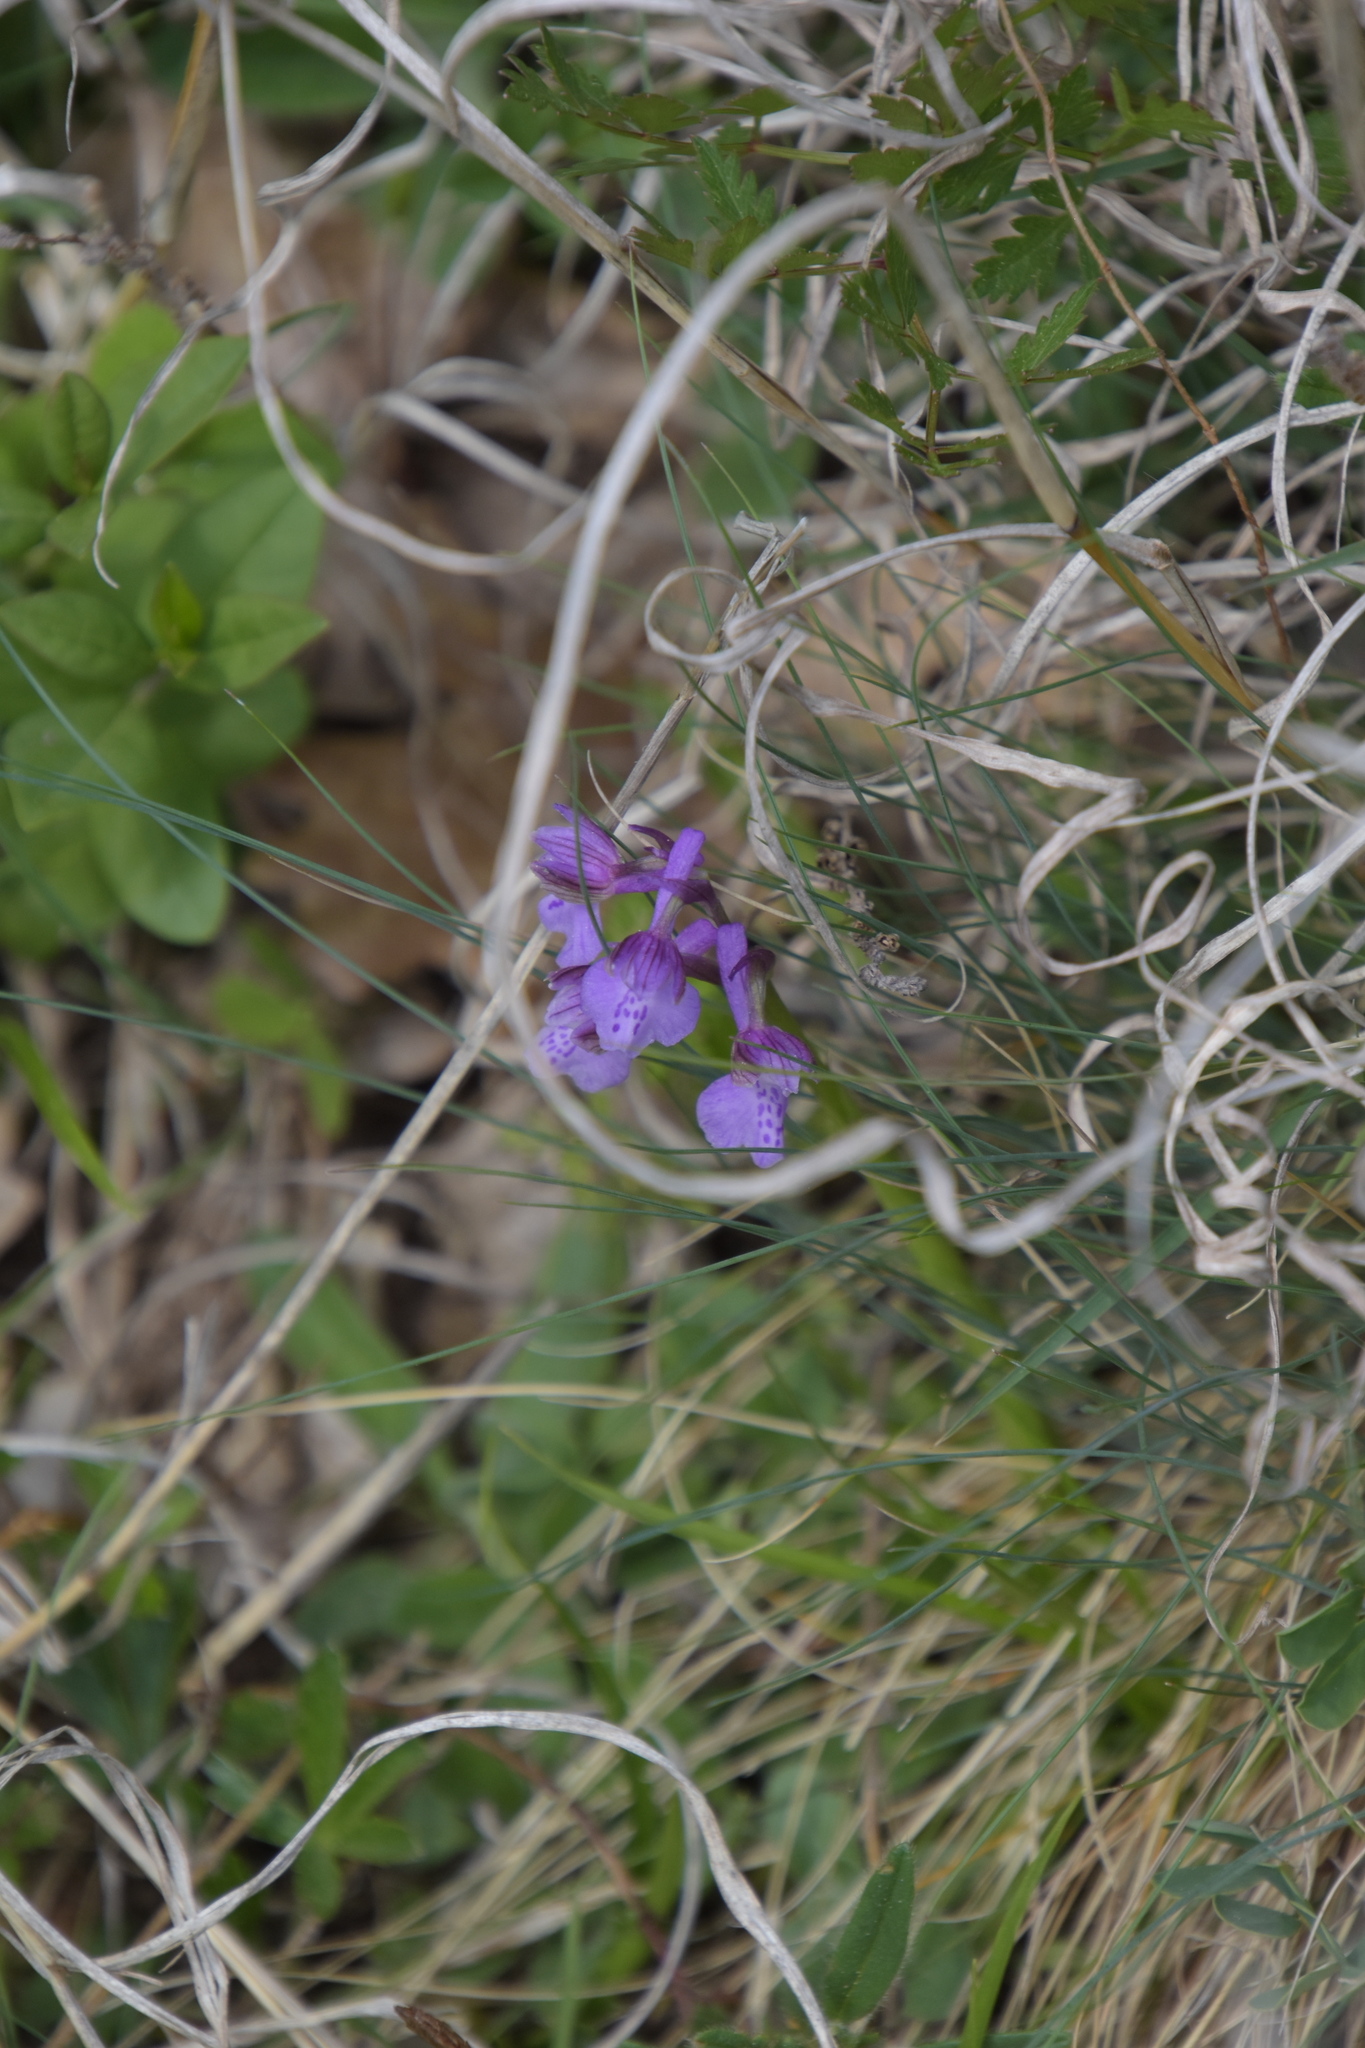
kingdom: Plantae
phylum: Tracheophyta
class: Liliopsida
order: Asparagales
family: Orchidaceae
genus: Anacamptis
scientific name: Anacamptis morio
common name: Green-winged orchid
